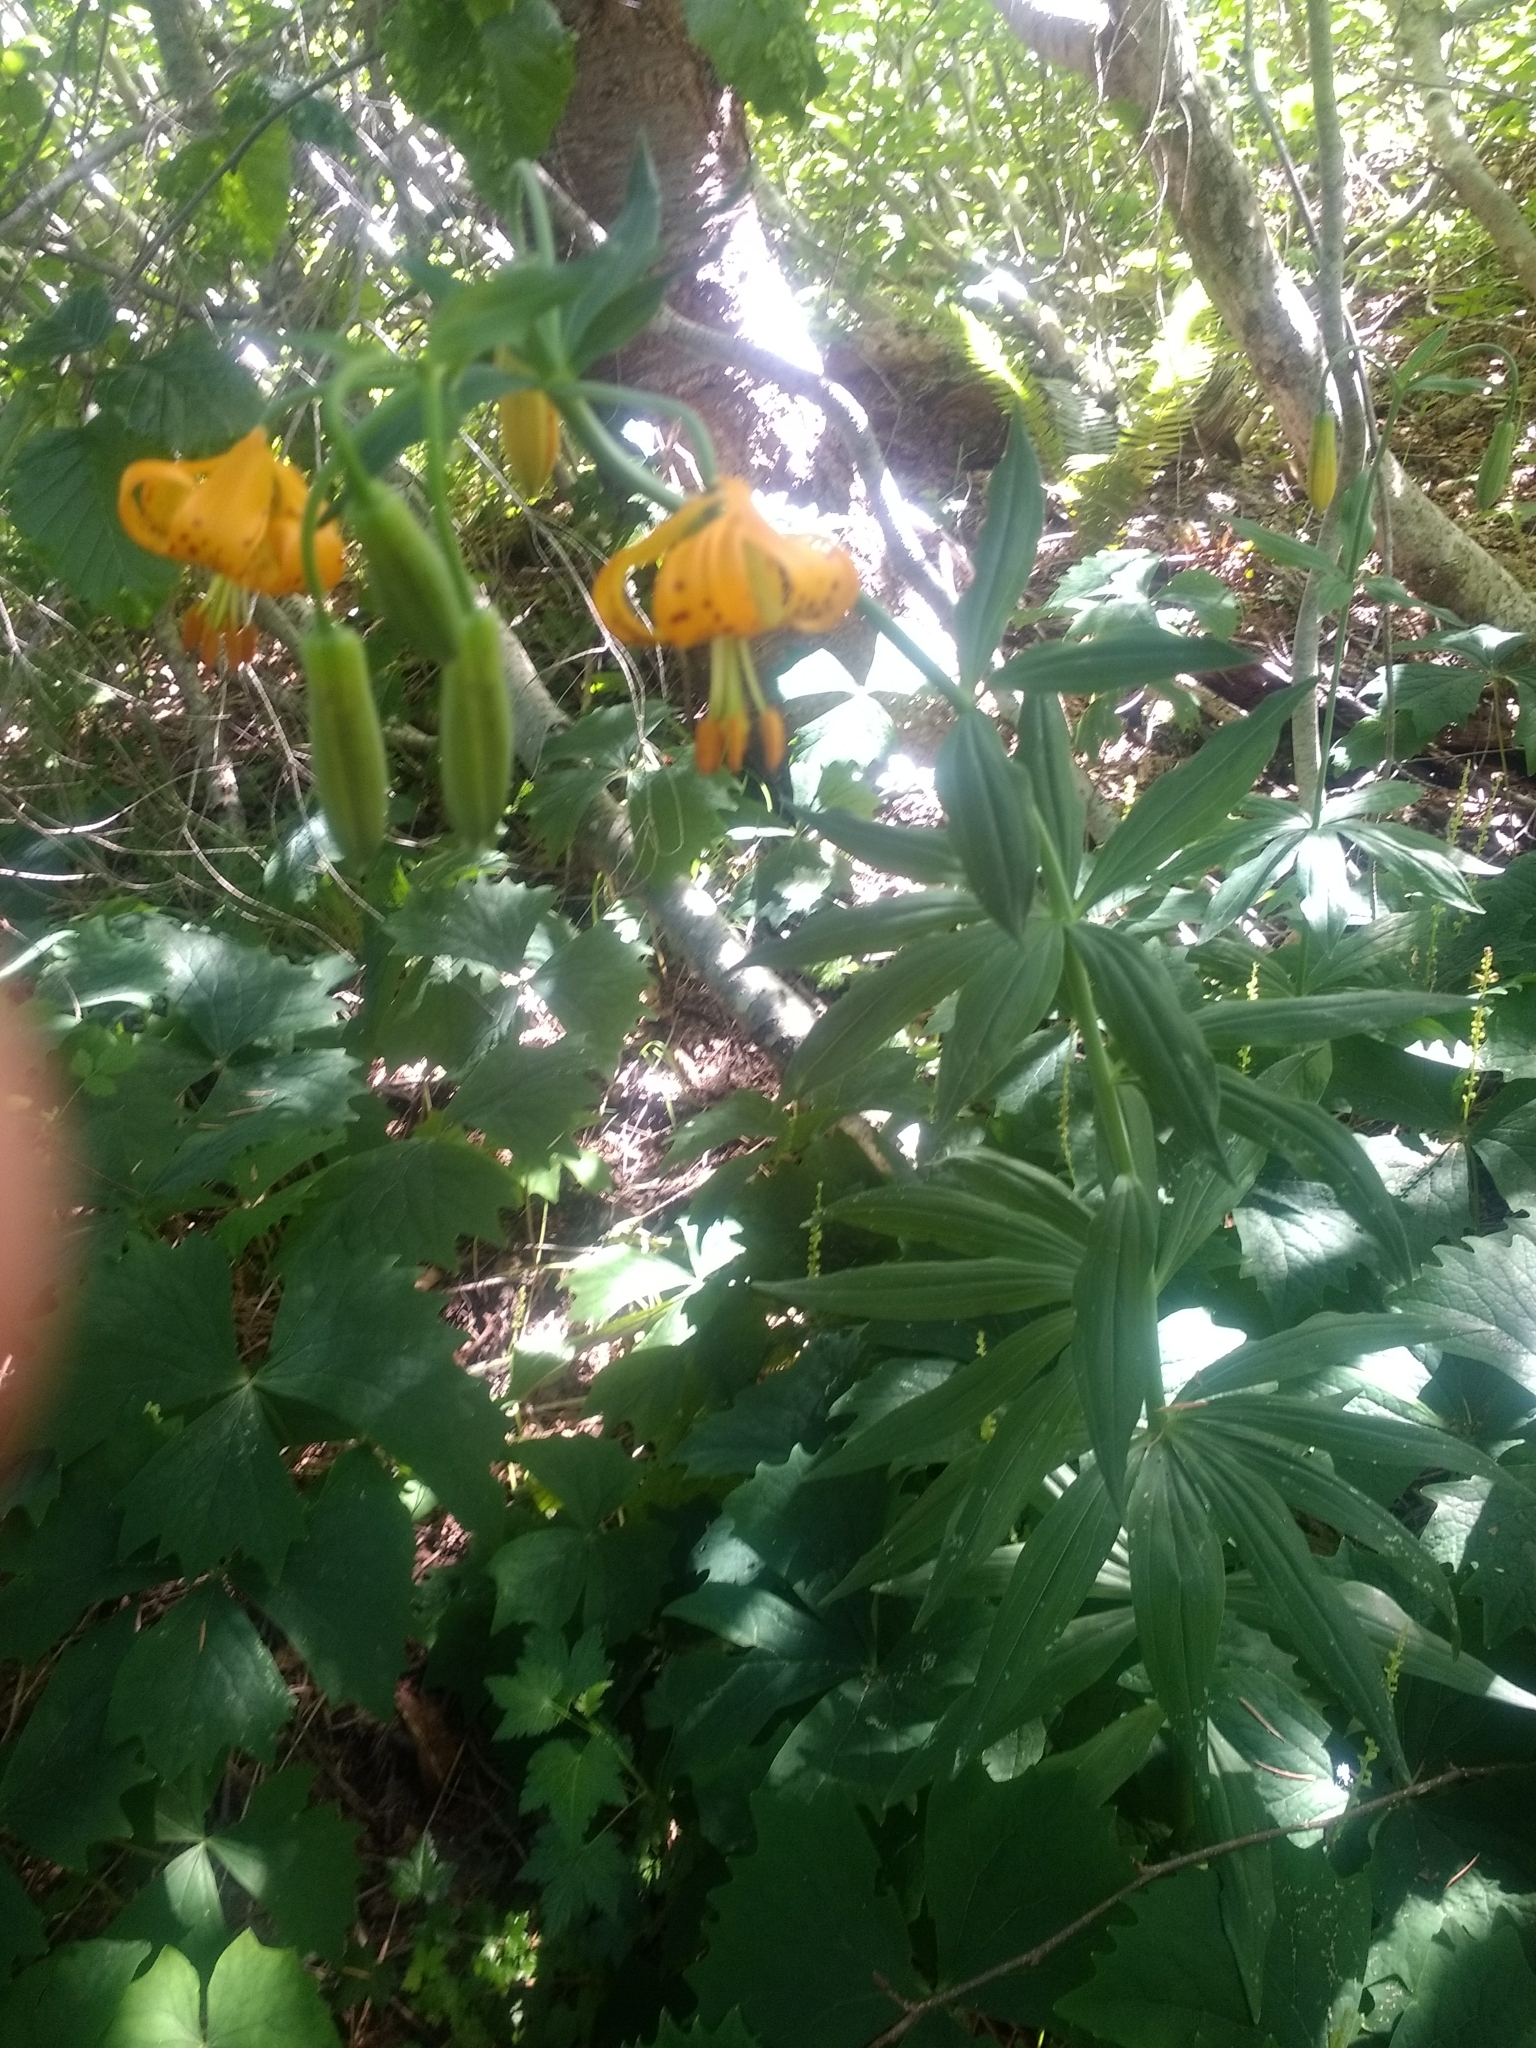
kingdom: Plantae
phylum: Tracheophyta
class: Liliopsida
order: Liliales
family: Liliaceae
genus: Lilium
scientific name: Lilium columbianum
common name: Columbia lily
